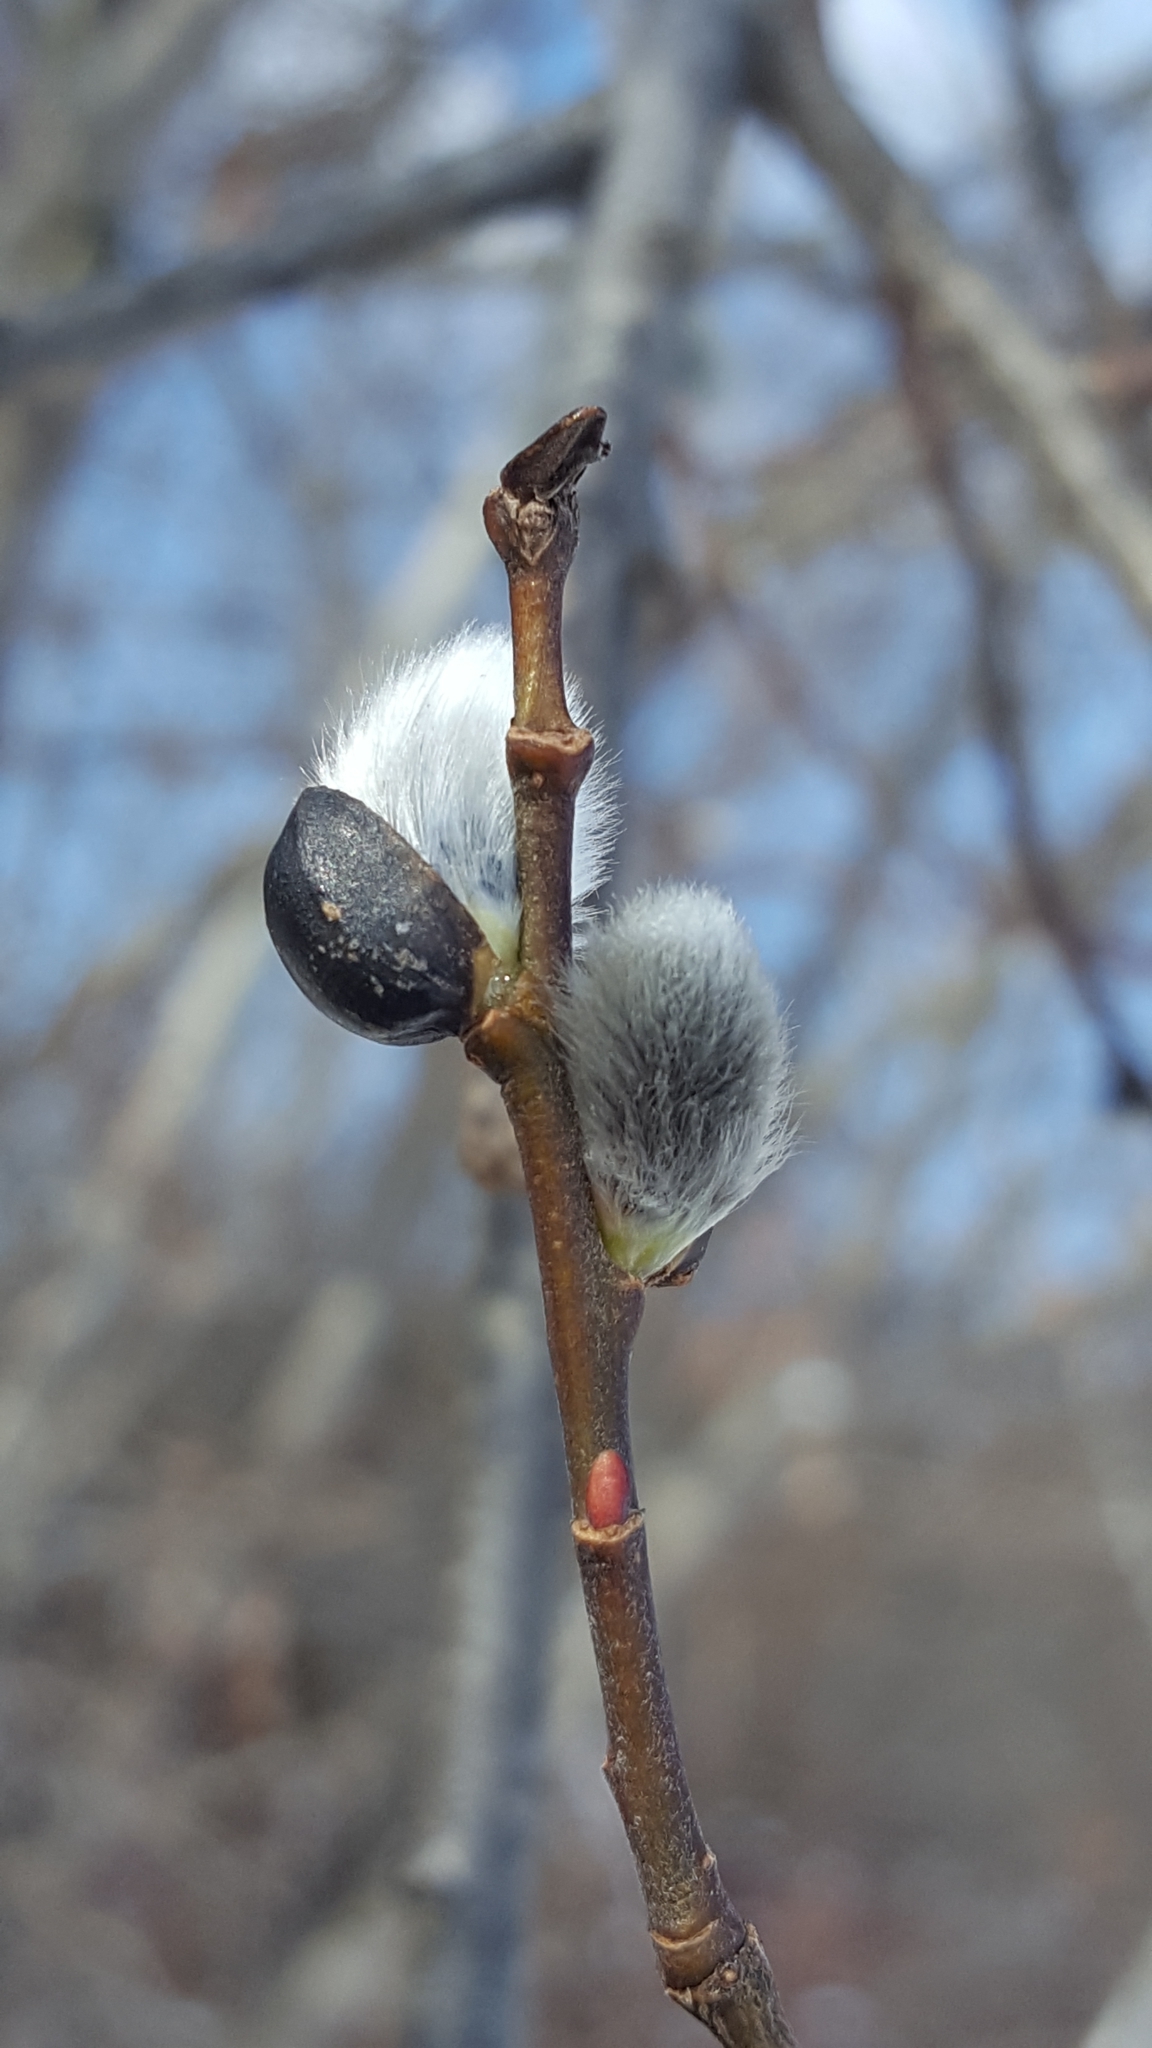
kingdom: Plantae
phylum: Tracheophyta
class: Magnoliopsida
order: Malpighiales
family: Salicaceae
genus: Salix
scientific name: Salix discolor
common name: Glaucous willow
